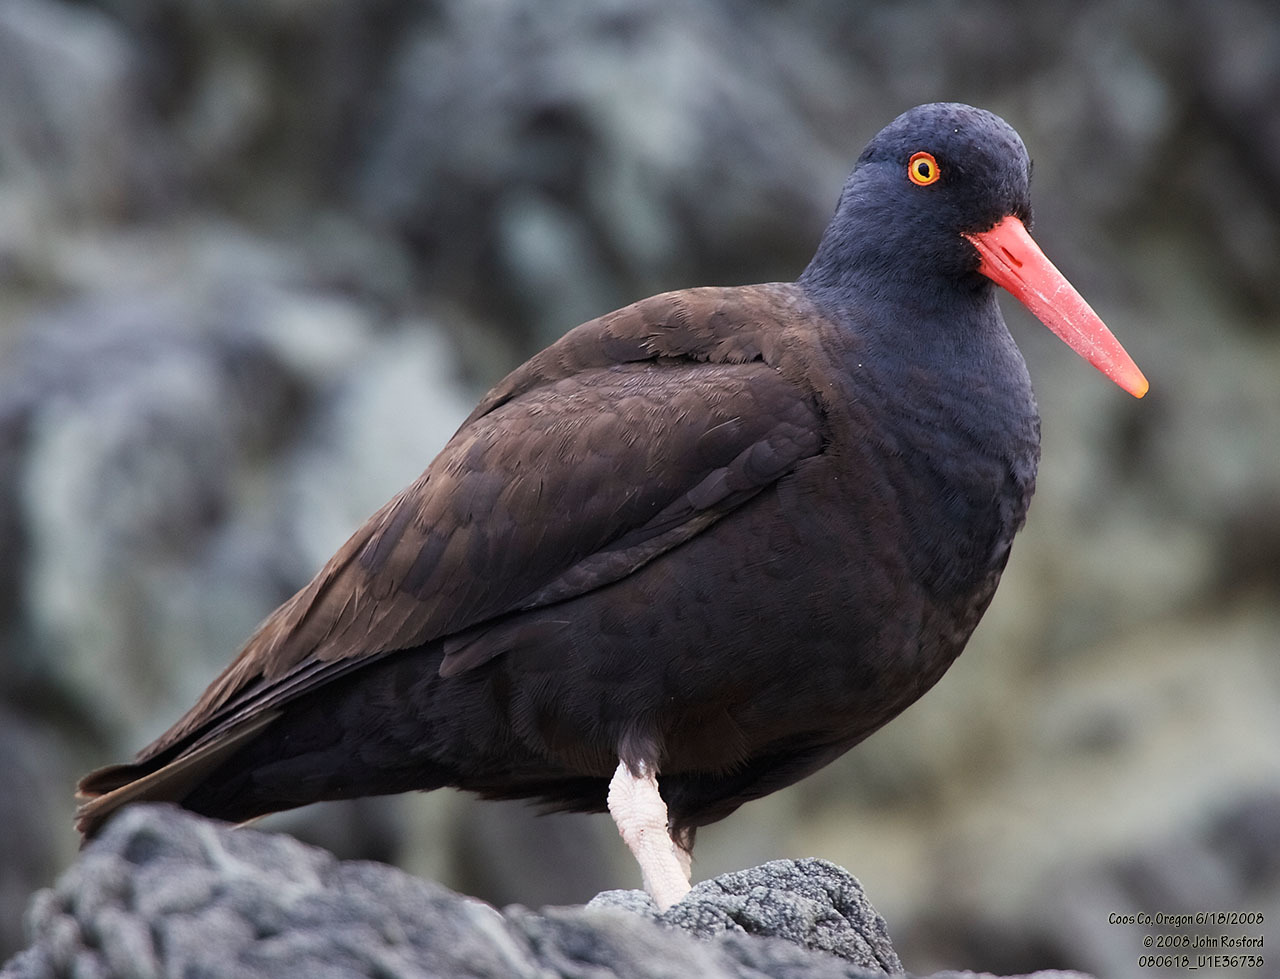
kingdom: Animalia
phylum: Chordata
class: Aves
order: Charadriiformes
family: Haematopodidae
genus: Haematopus
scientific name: Haematopus bachmani
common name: Black oystercatcher
